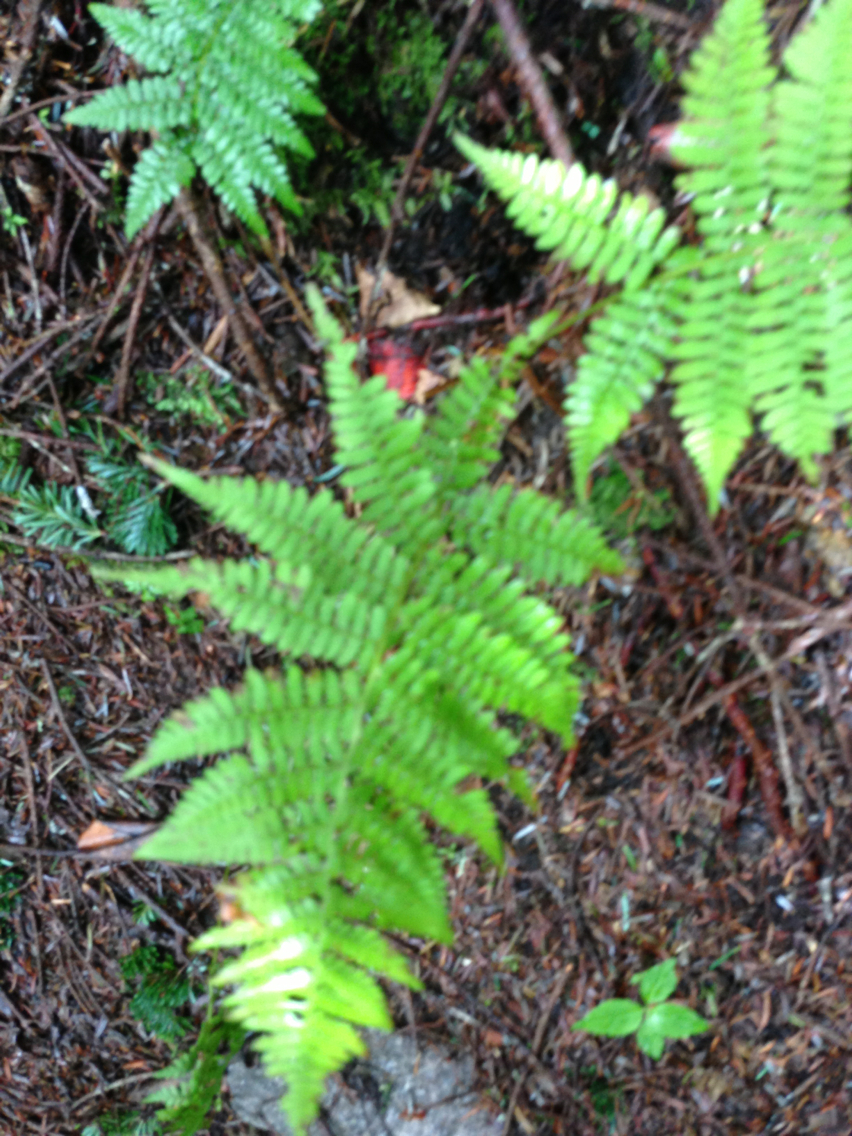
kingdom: Plantae
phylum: Tracheophyta
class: Polypodiopsida
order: Polypodiales
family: Thelypteridaceae
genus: Phegopteris
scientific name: Phegopteris hexagonoptera
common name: Broad beech fern
